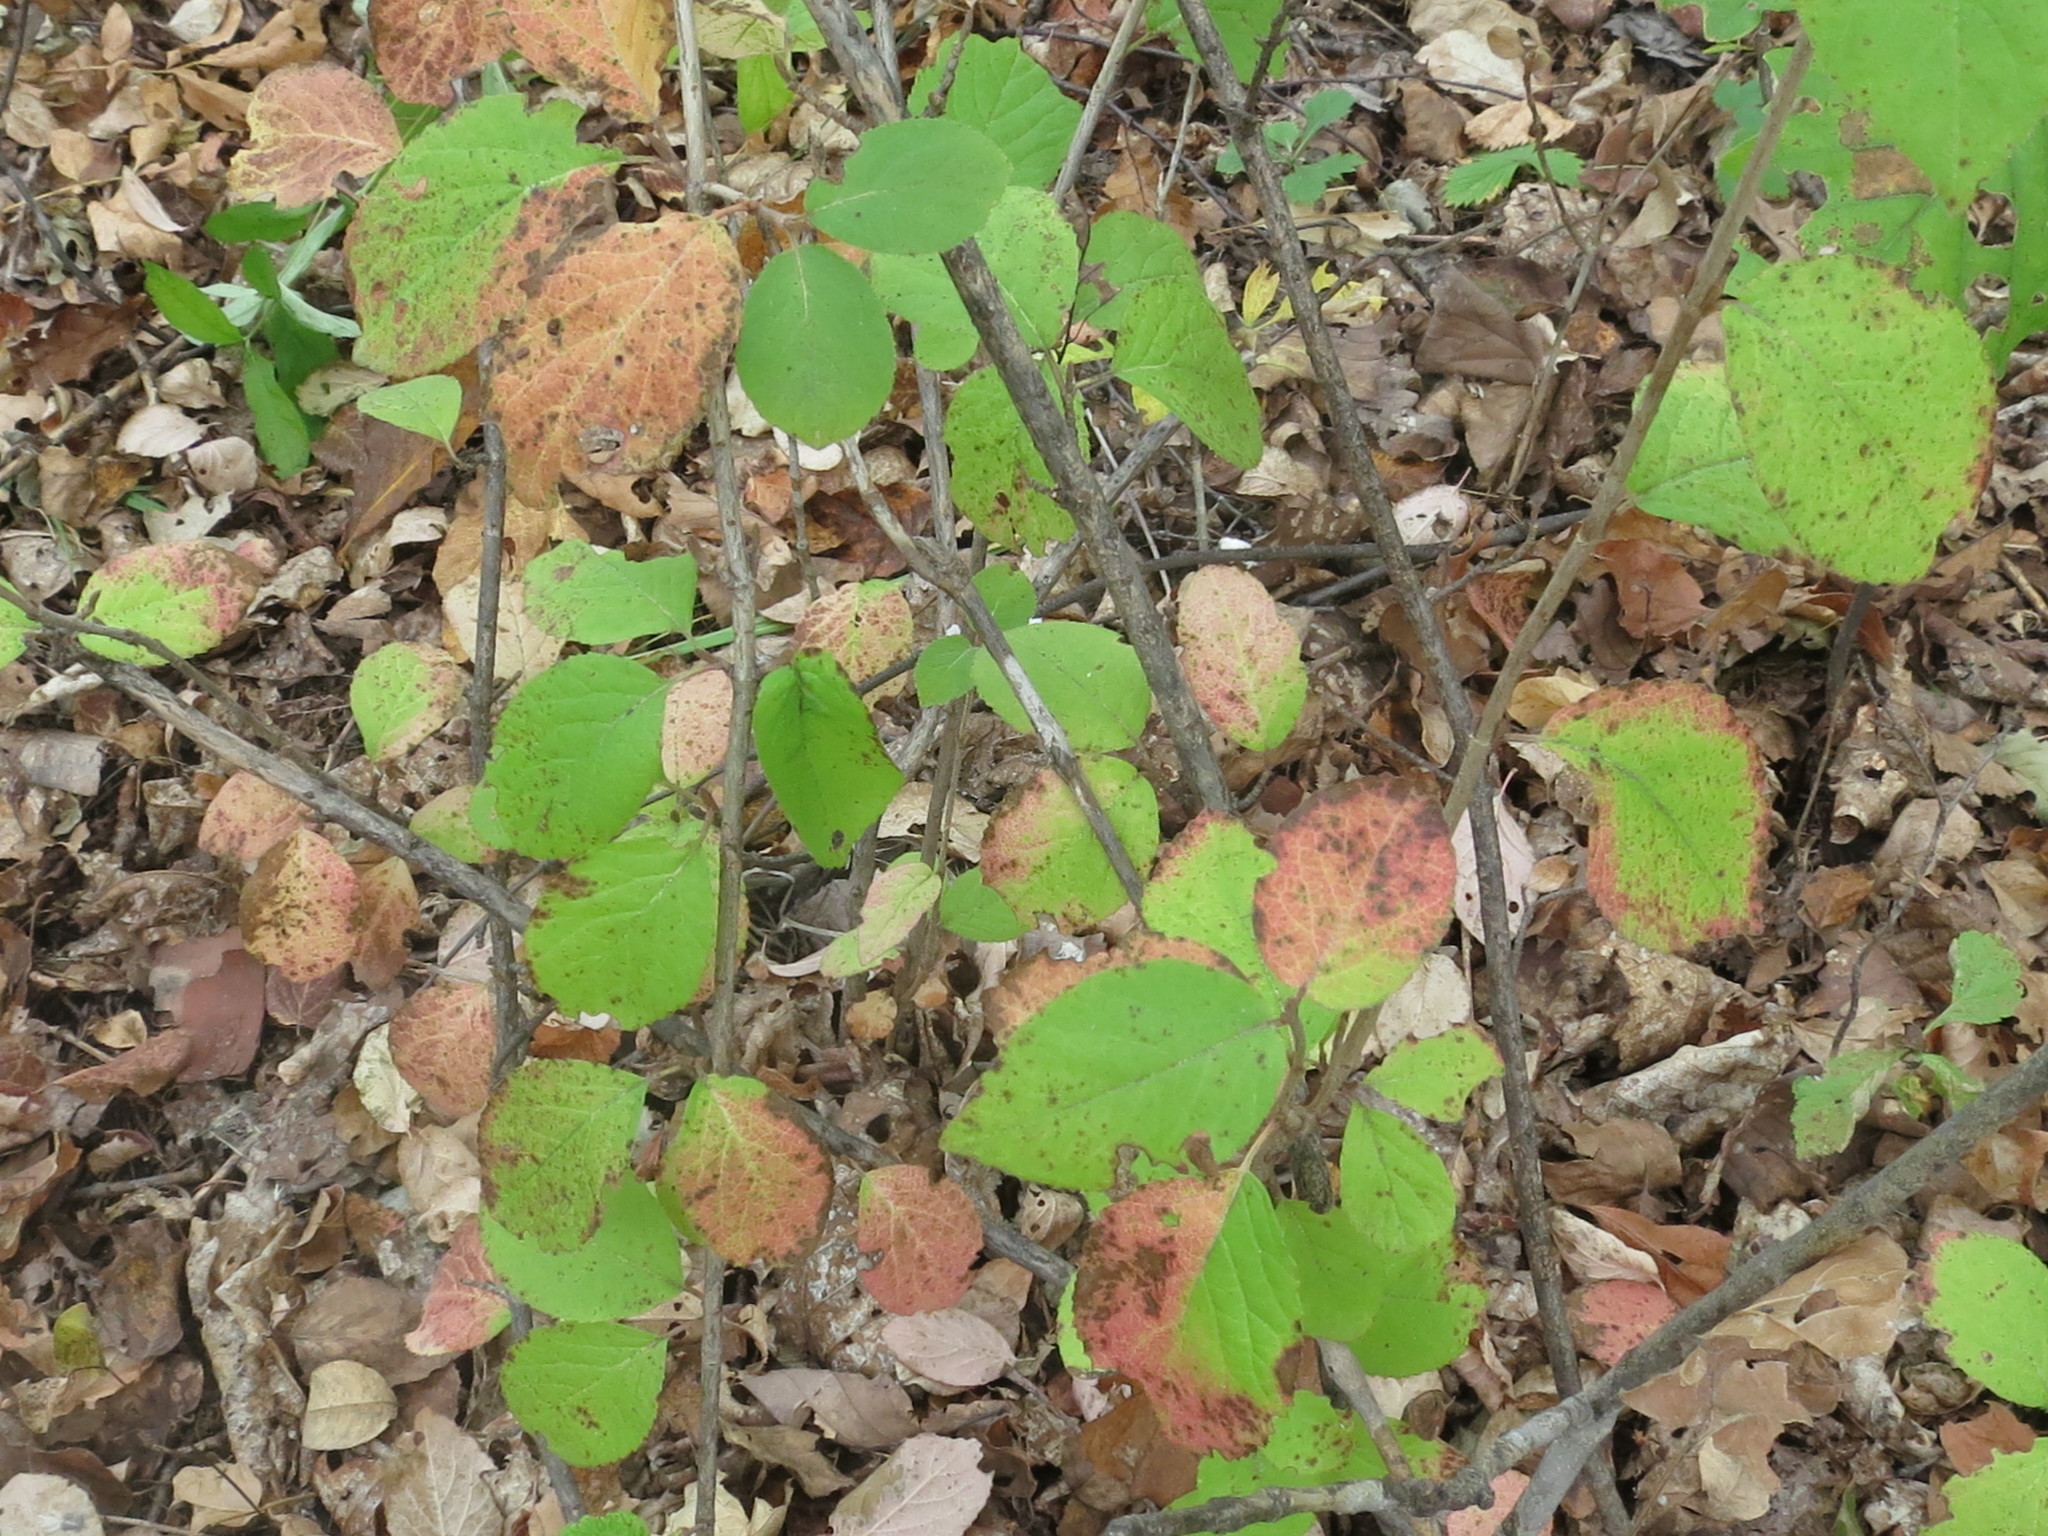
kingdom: Plantae
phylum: Tracheophyta
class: Magnoliopsida
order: Dipsacales
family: Viburnaceae
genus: Viburnum
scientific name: Viburnum burejaeticum
